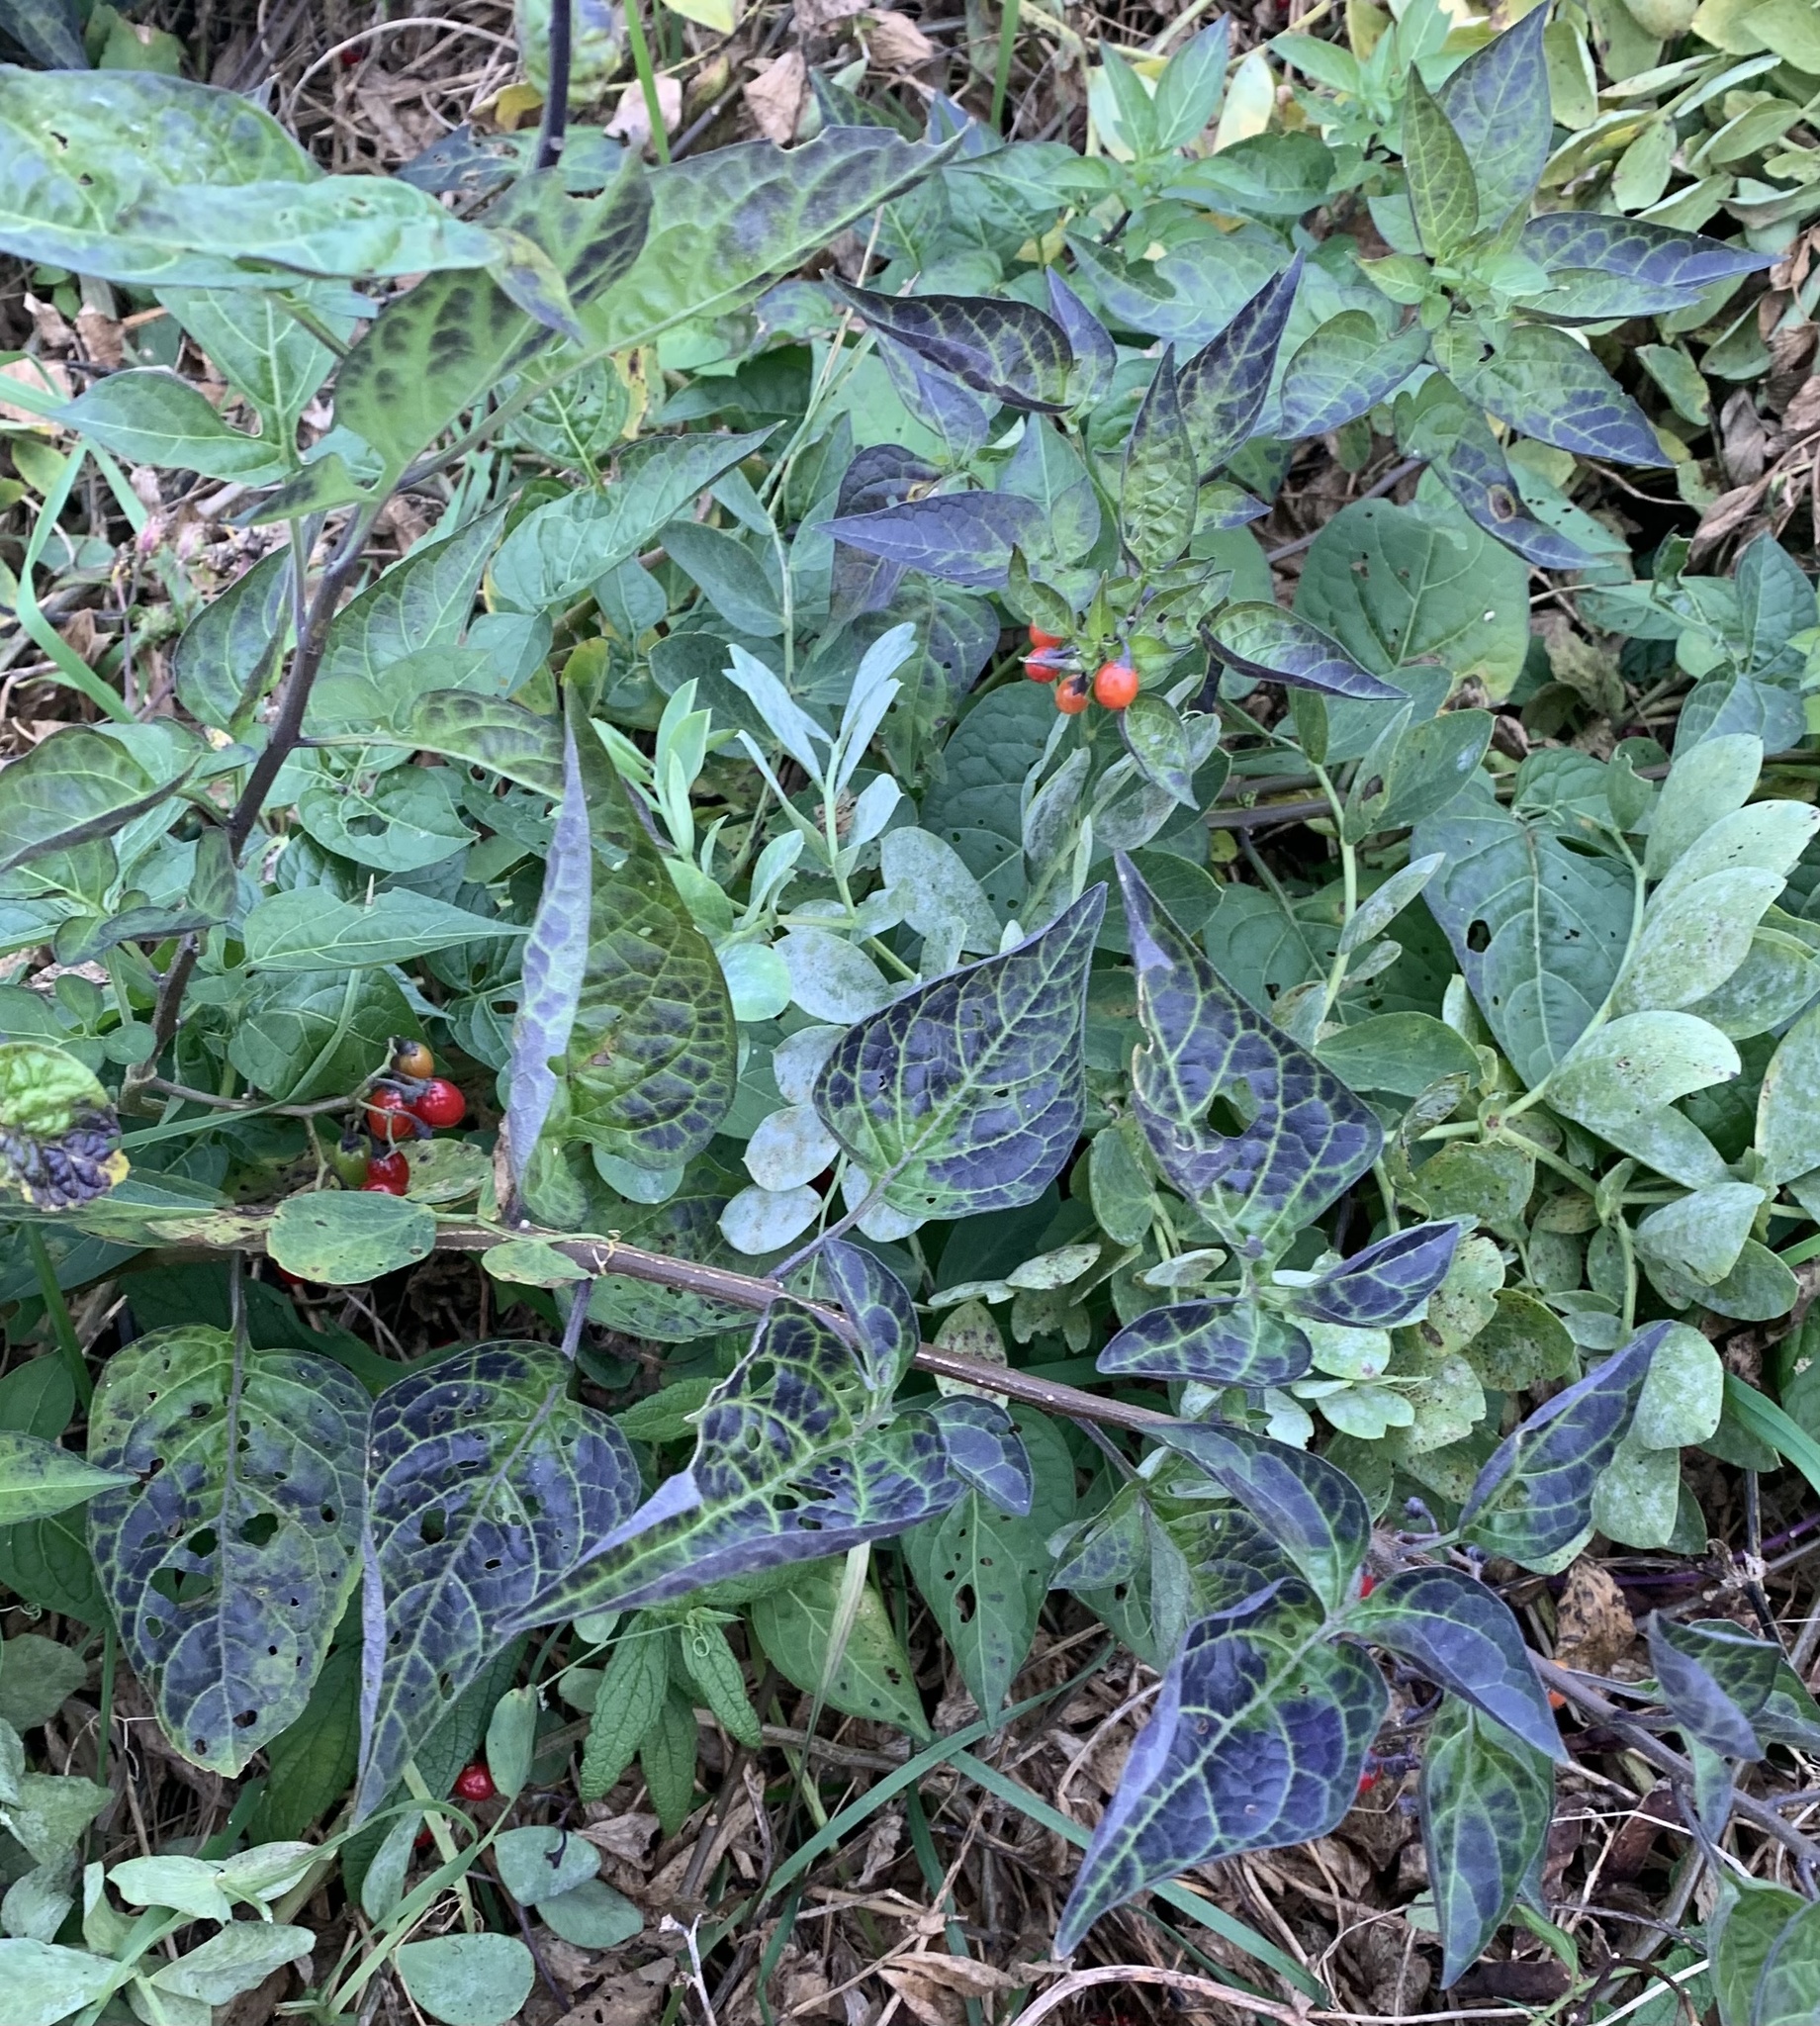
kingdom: Plantae
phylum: Tracheophyta
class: Magnoliopsida
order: Solanales
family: Solanaceae
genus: Solanum
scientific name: Solanum dulcamara
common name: Climbing nightshade
